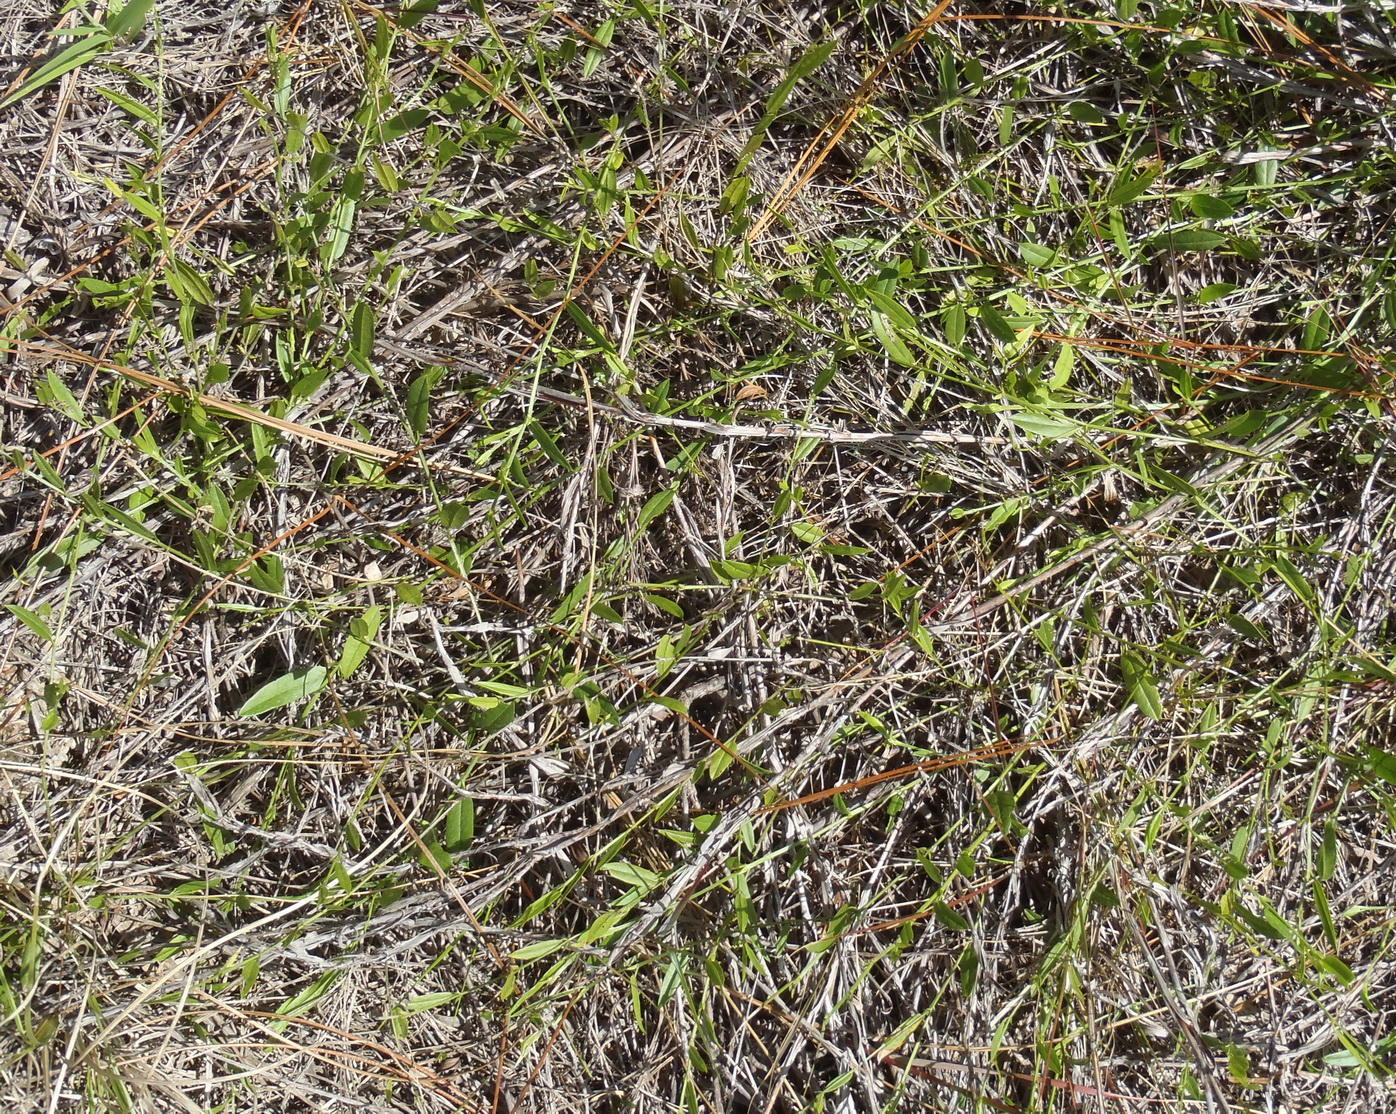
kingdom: Plantae
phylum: Tracheophyta
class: Magnoliopsida
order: Fabales
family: Fabaceae
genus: Psoralea
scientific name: Psoralea plauta
